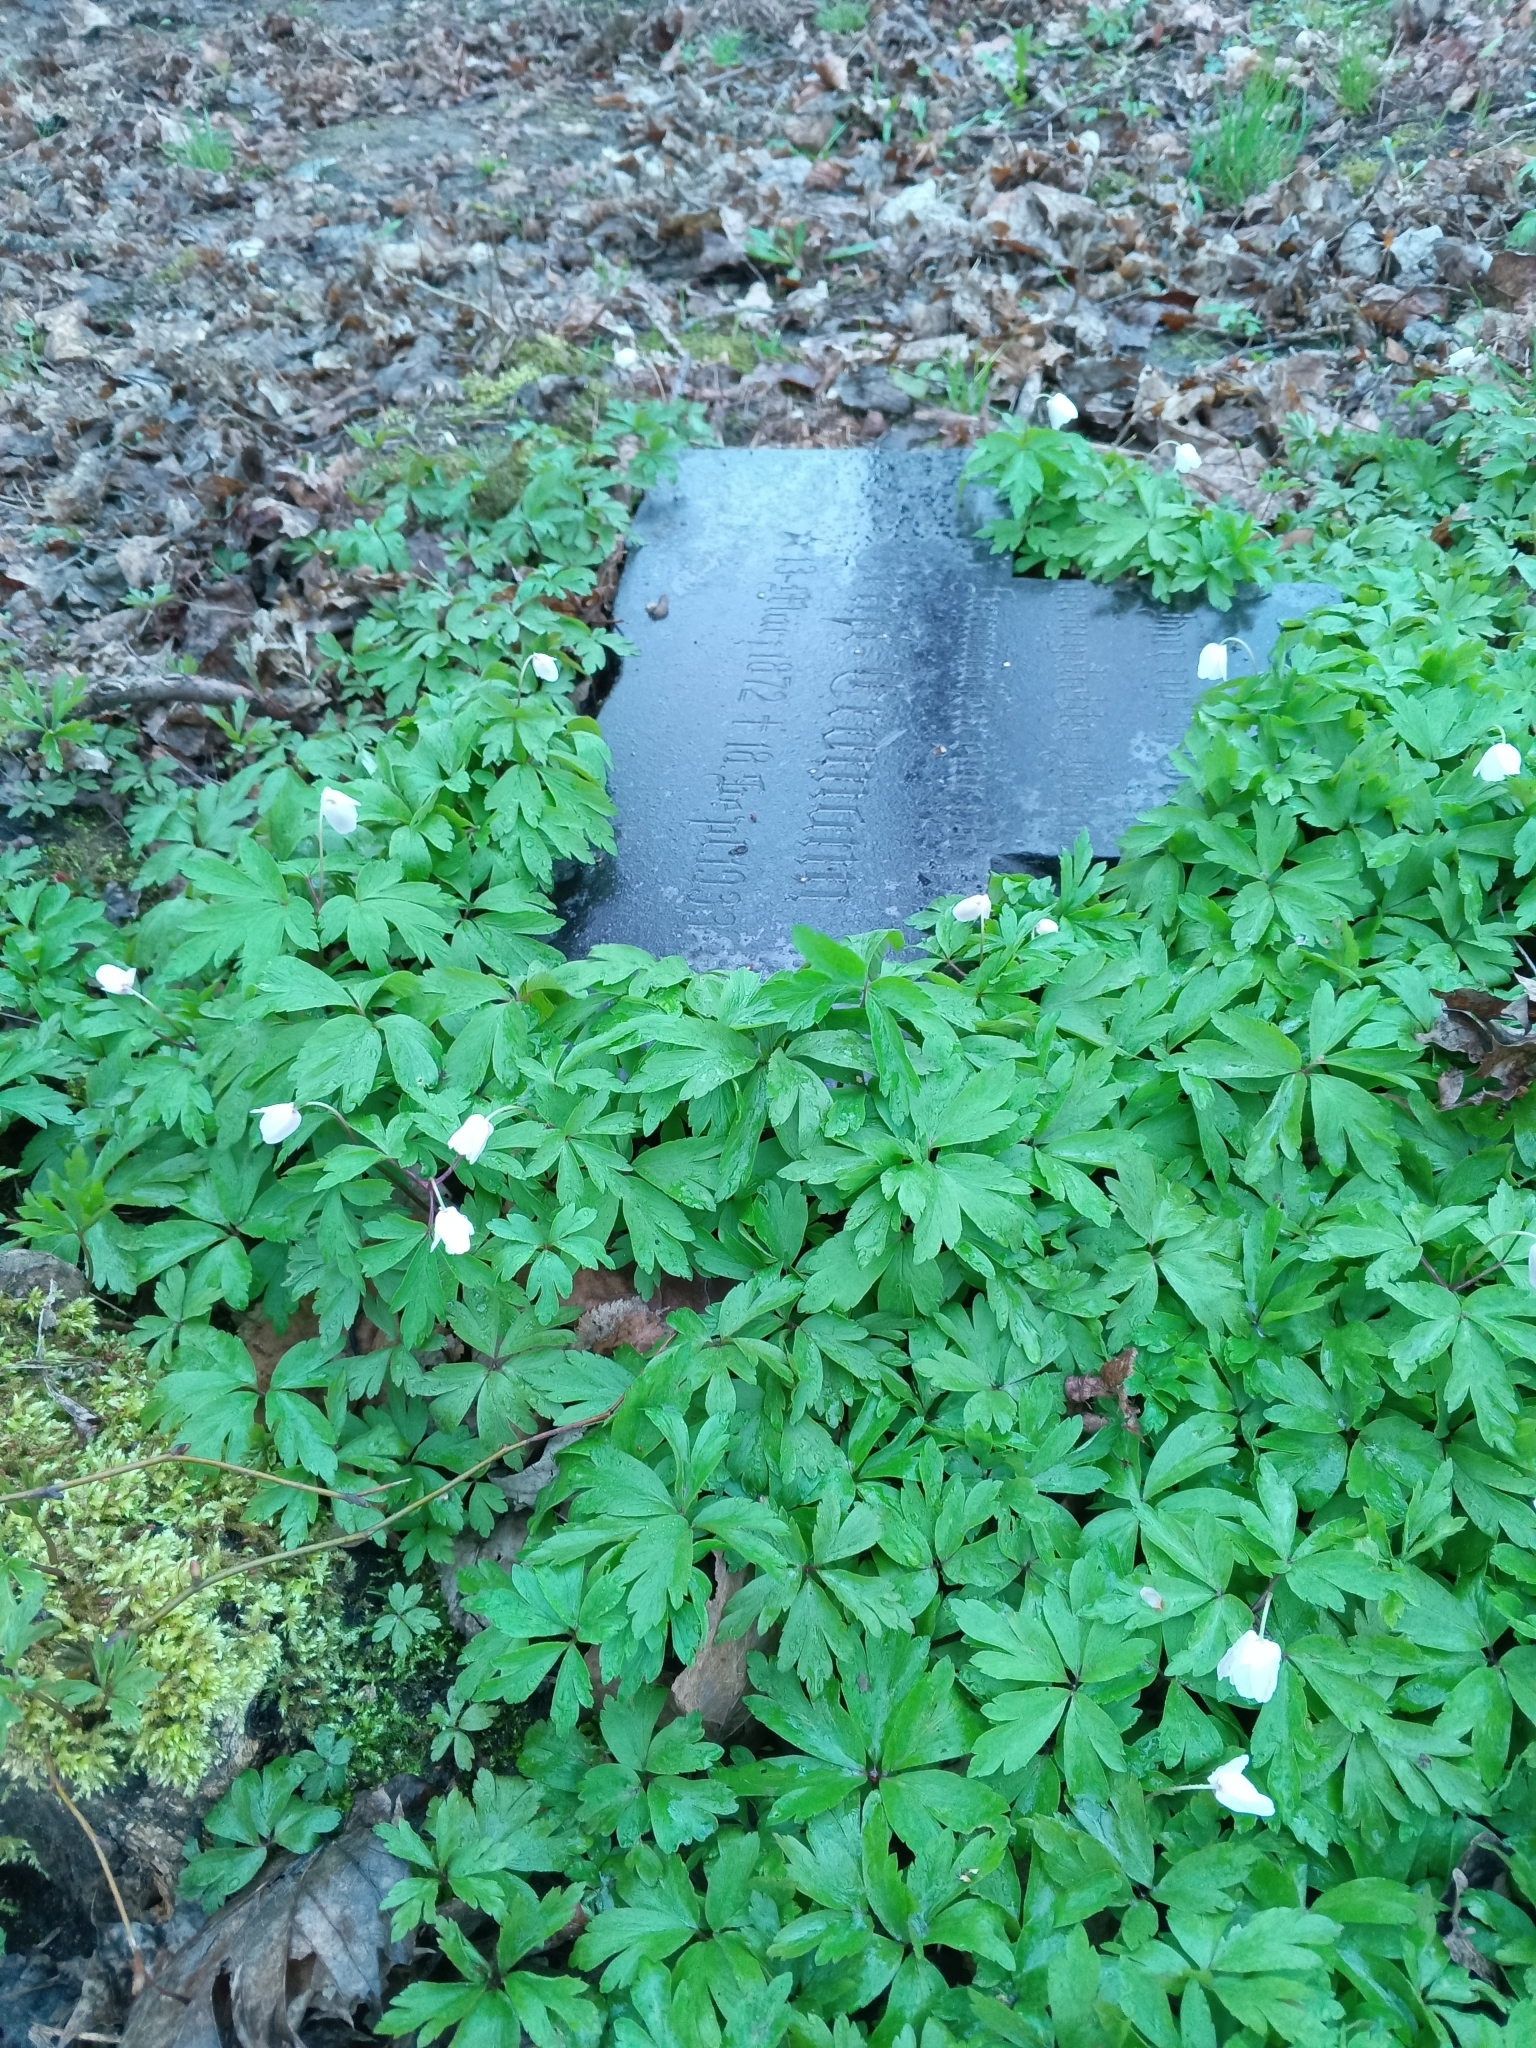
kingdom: Plantae
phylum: Tracheophyta
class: Magnoliopsida
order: Ranunculales
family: Ranunculaceae
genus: Anemone
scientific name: Anemone nemorosa
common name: Wood anemone
